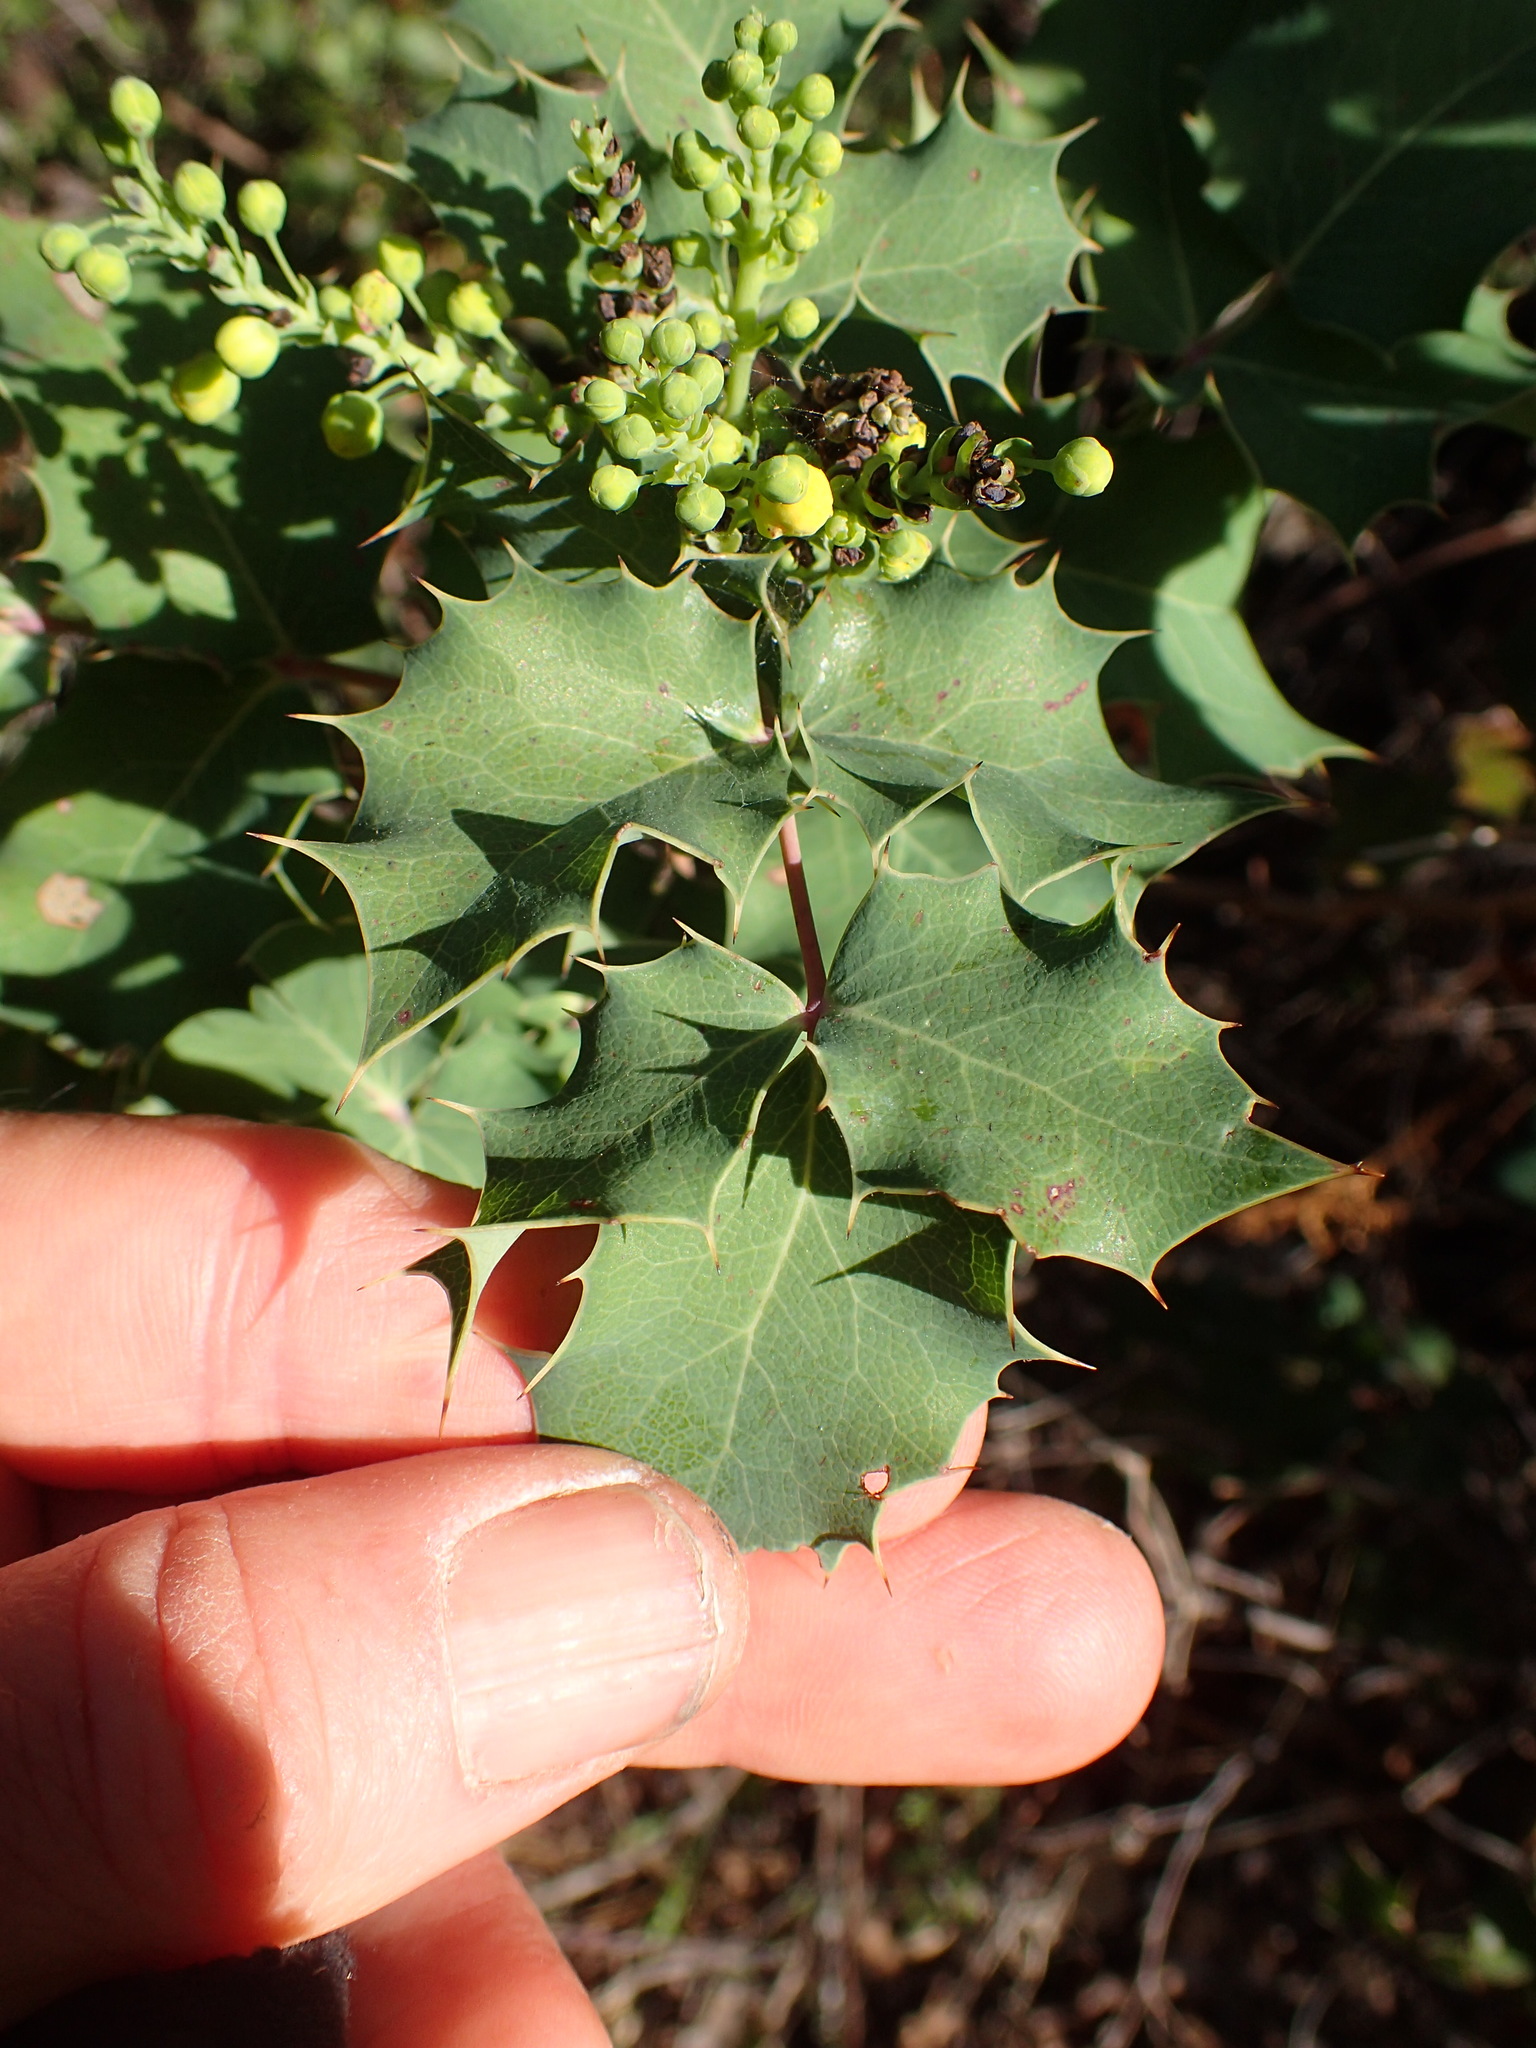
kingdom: Plantae
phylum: Tracheophyta
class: Magnoliopsida
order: Ranunculales
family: Berberidaceae
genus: Mahonia
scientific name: Mahonia dictyota
